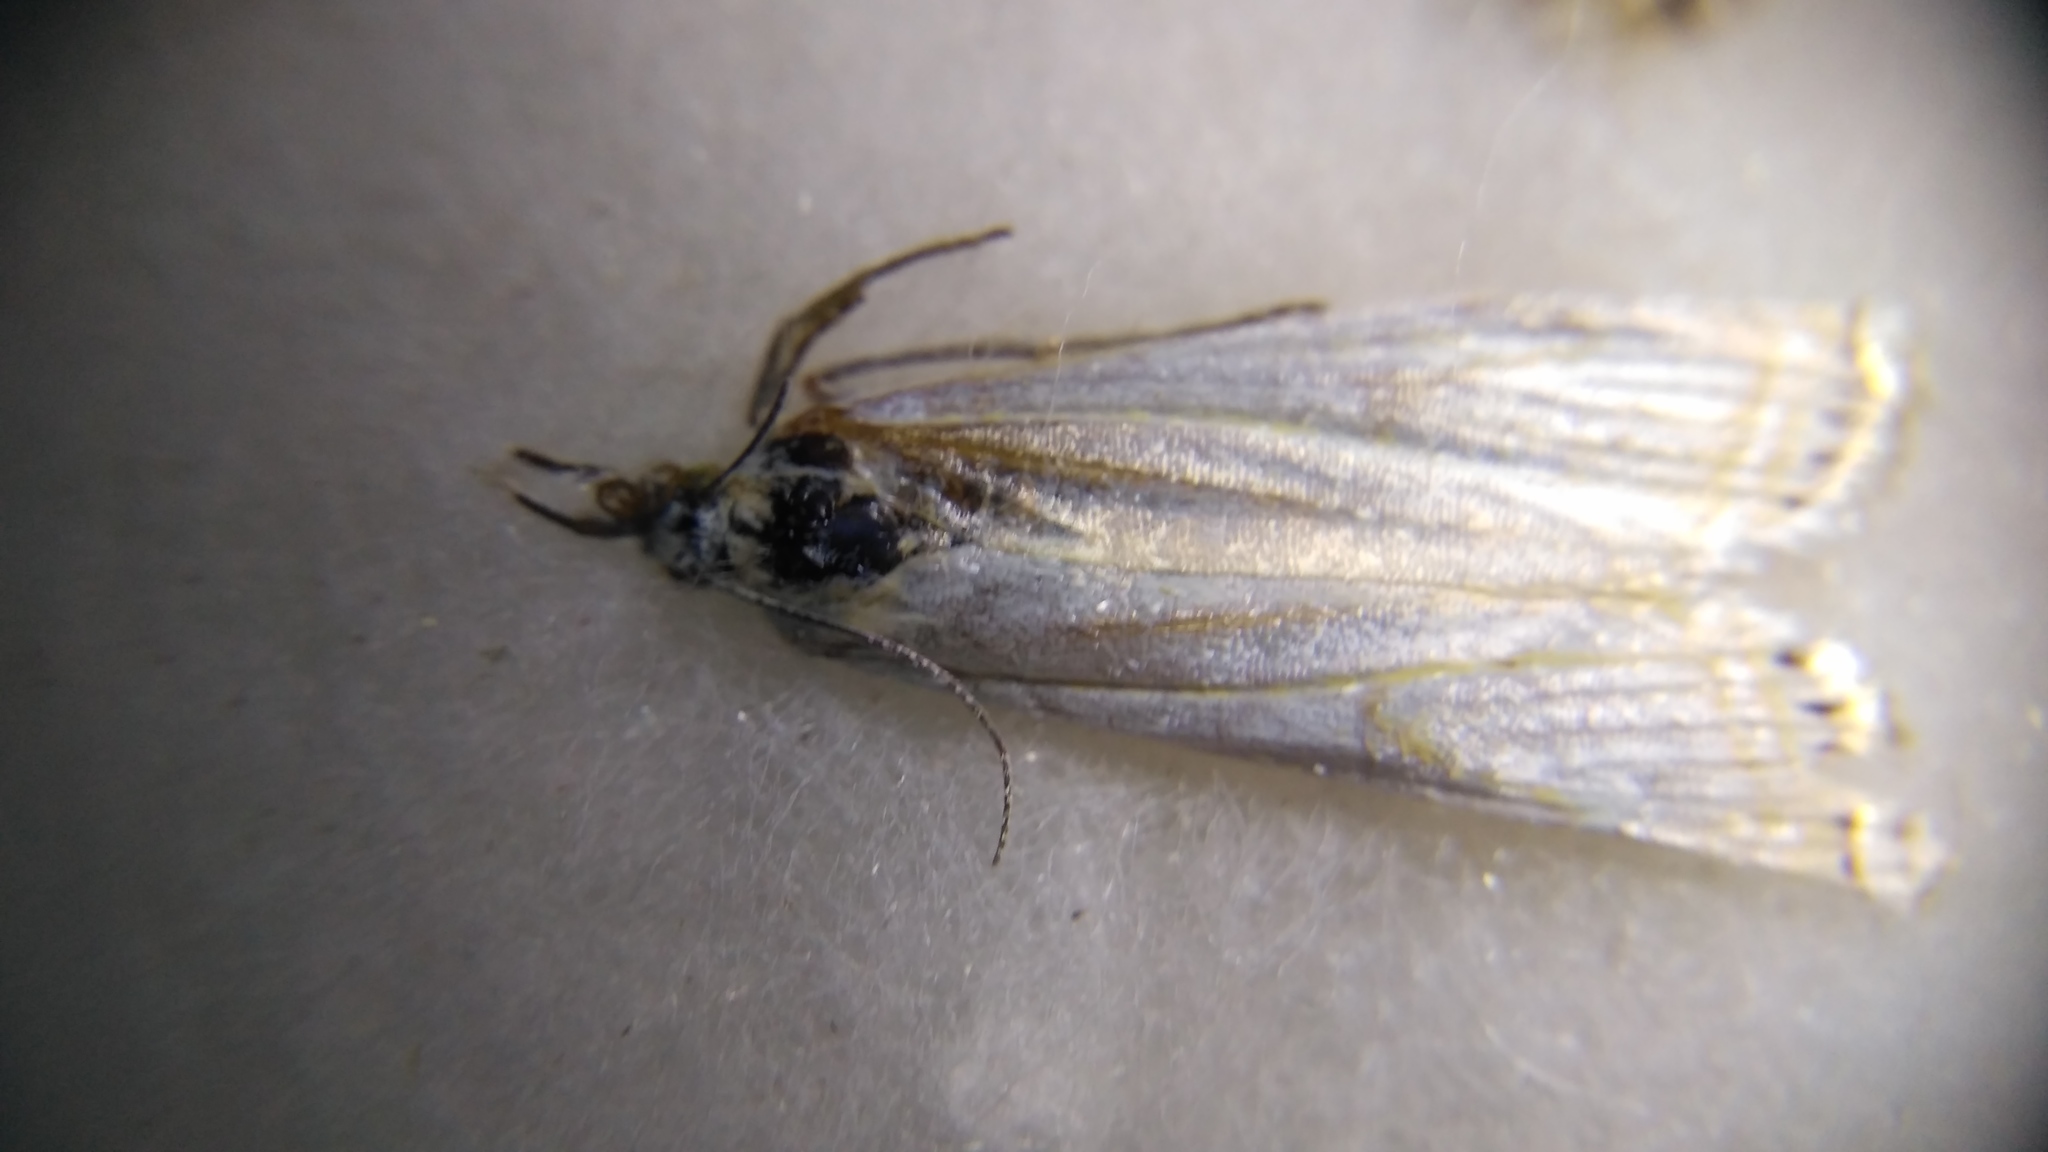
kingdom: Animalia
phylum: Arthropoda
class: Insecta
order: Lepidoptera
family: Crambidae
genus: Crambus
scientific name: Crambus nemorella
